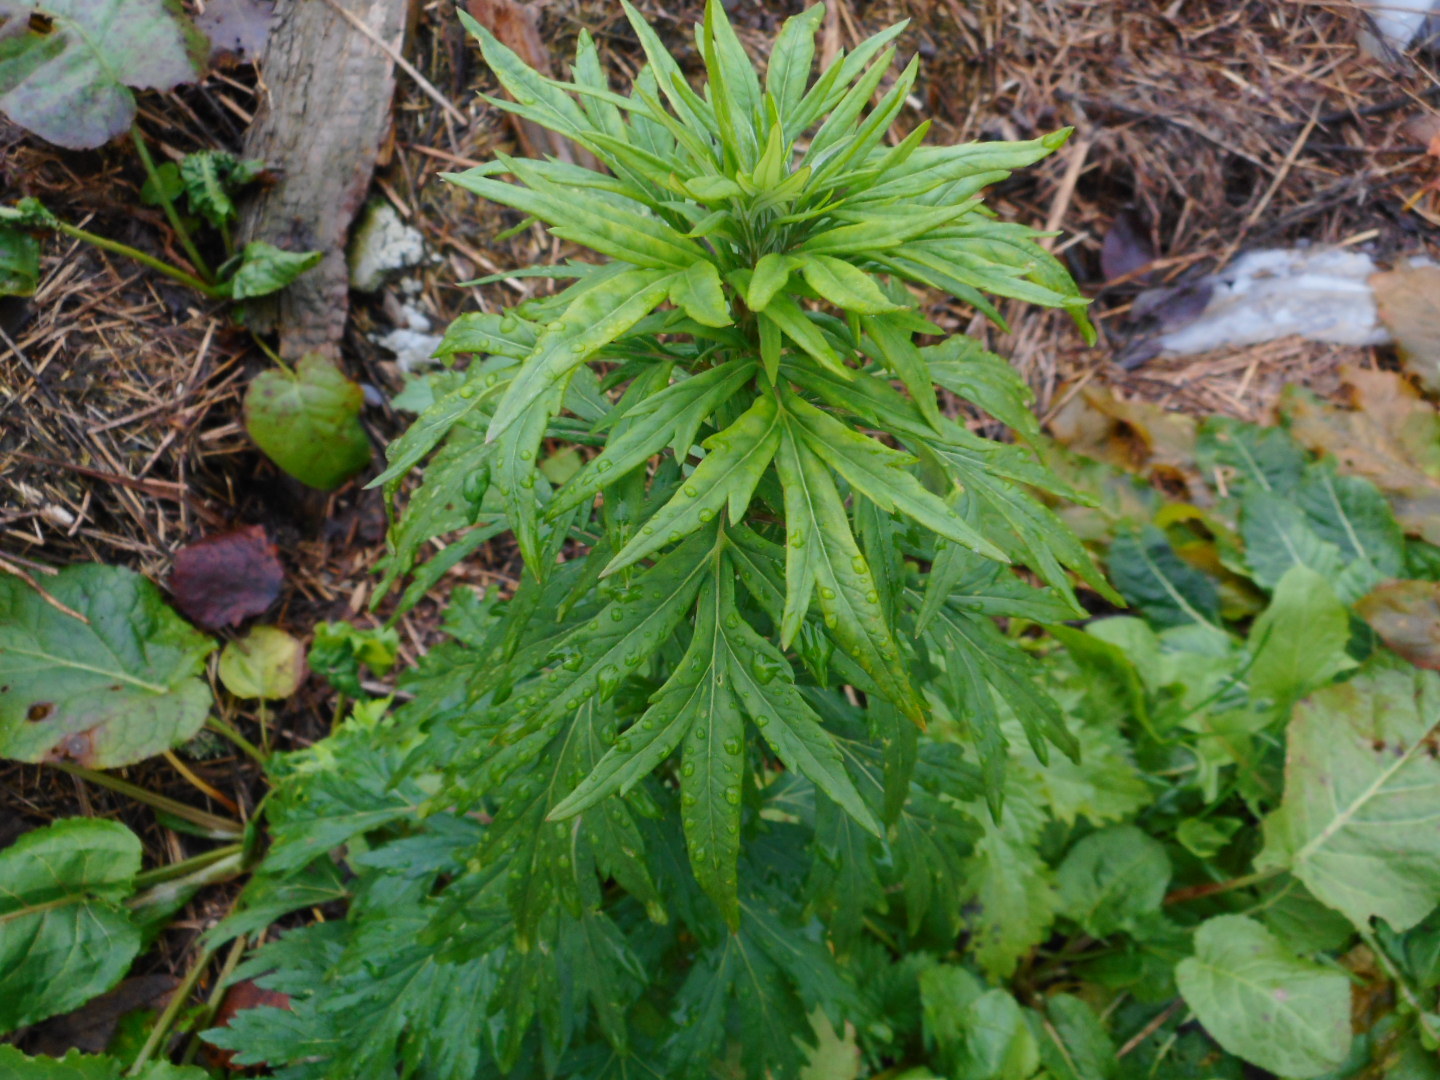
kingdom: Plantae
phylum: Tracheophyta
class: Magnoliopsida
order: Asterales
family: Asteraceae
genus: Artemisia
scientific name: Artemisia vulgaris
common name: Mugwort
